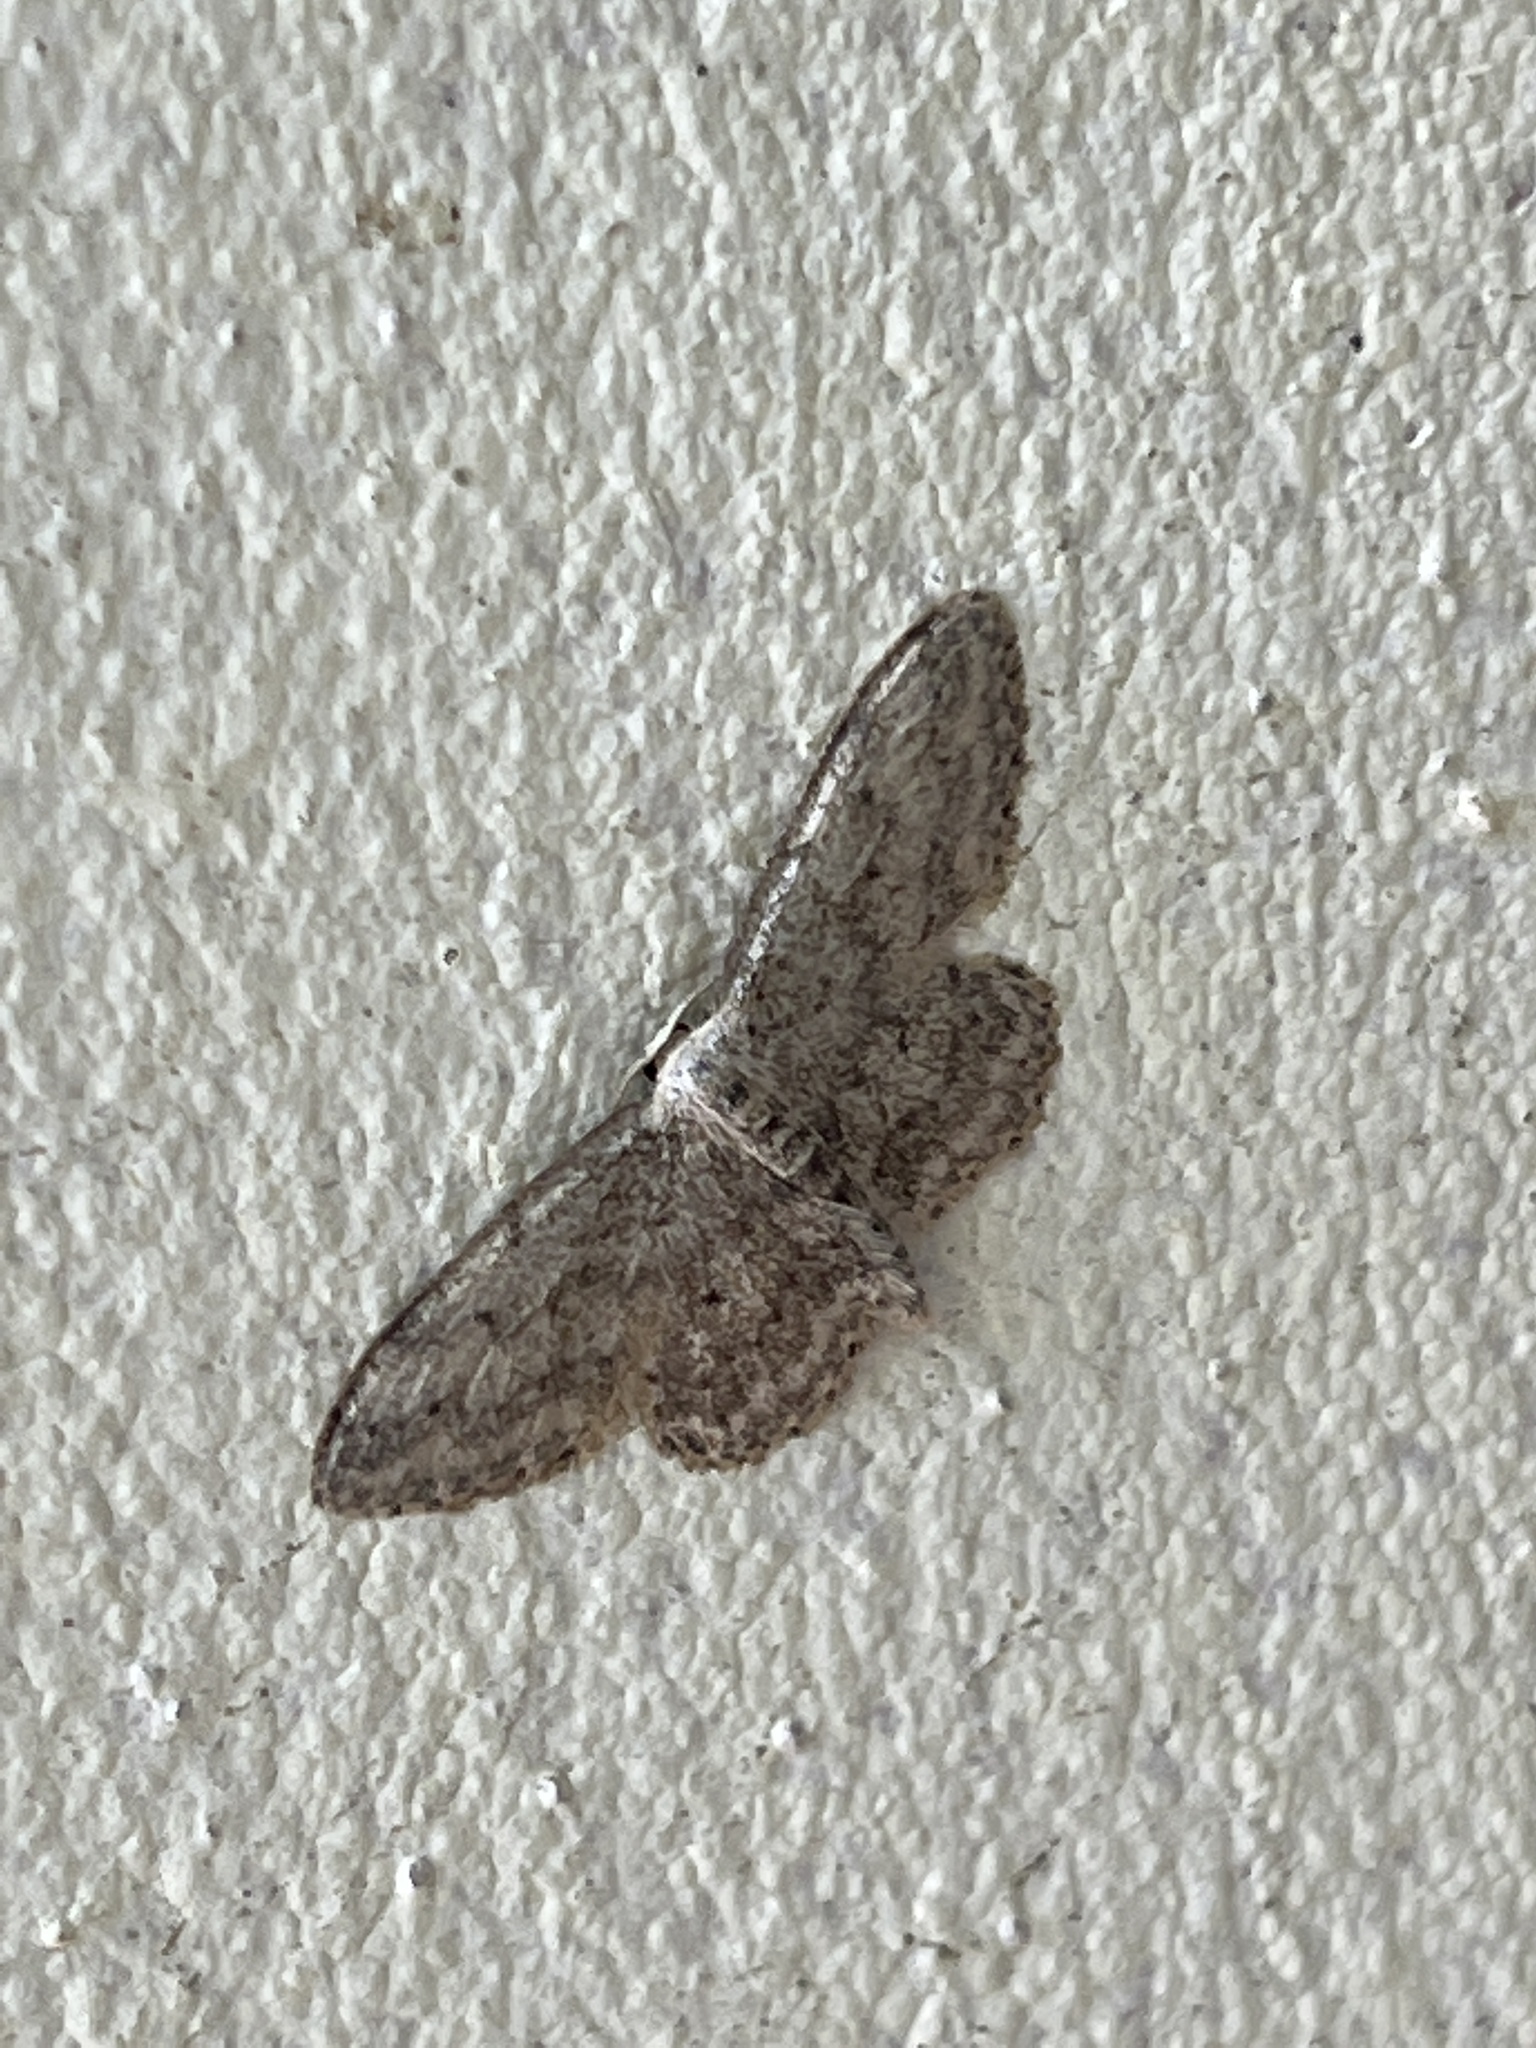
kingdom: Animalia
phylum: Arthropoda
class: Insecta
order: Lepidoptera
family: Geometridae
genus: Idaea
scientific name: Idaea seriata
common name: Small dusty wave
